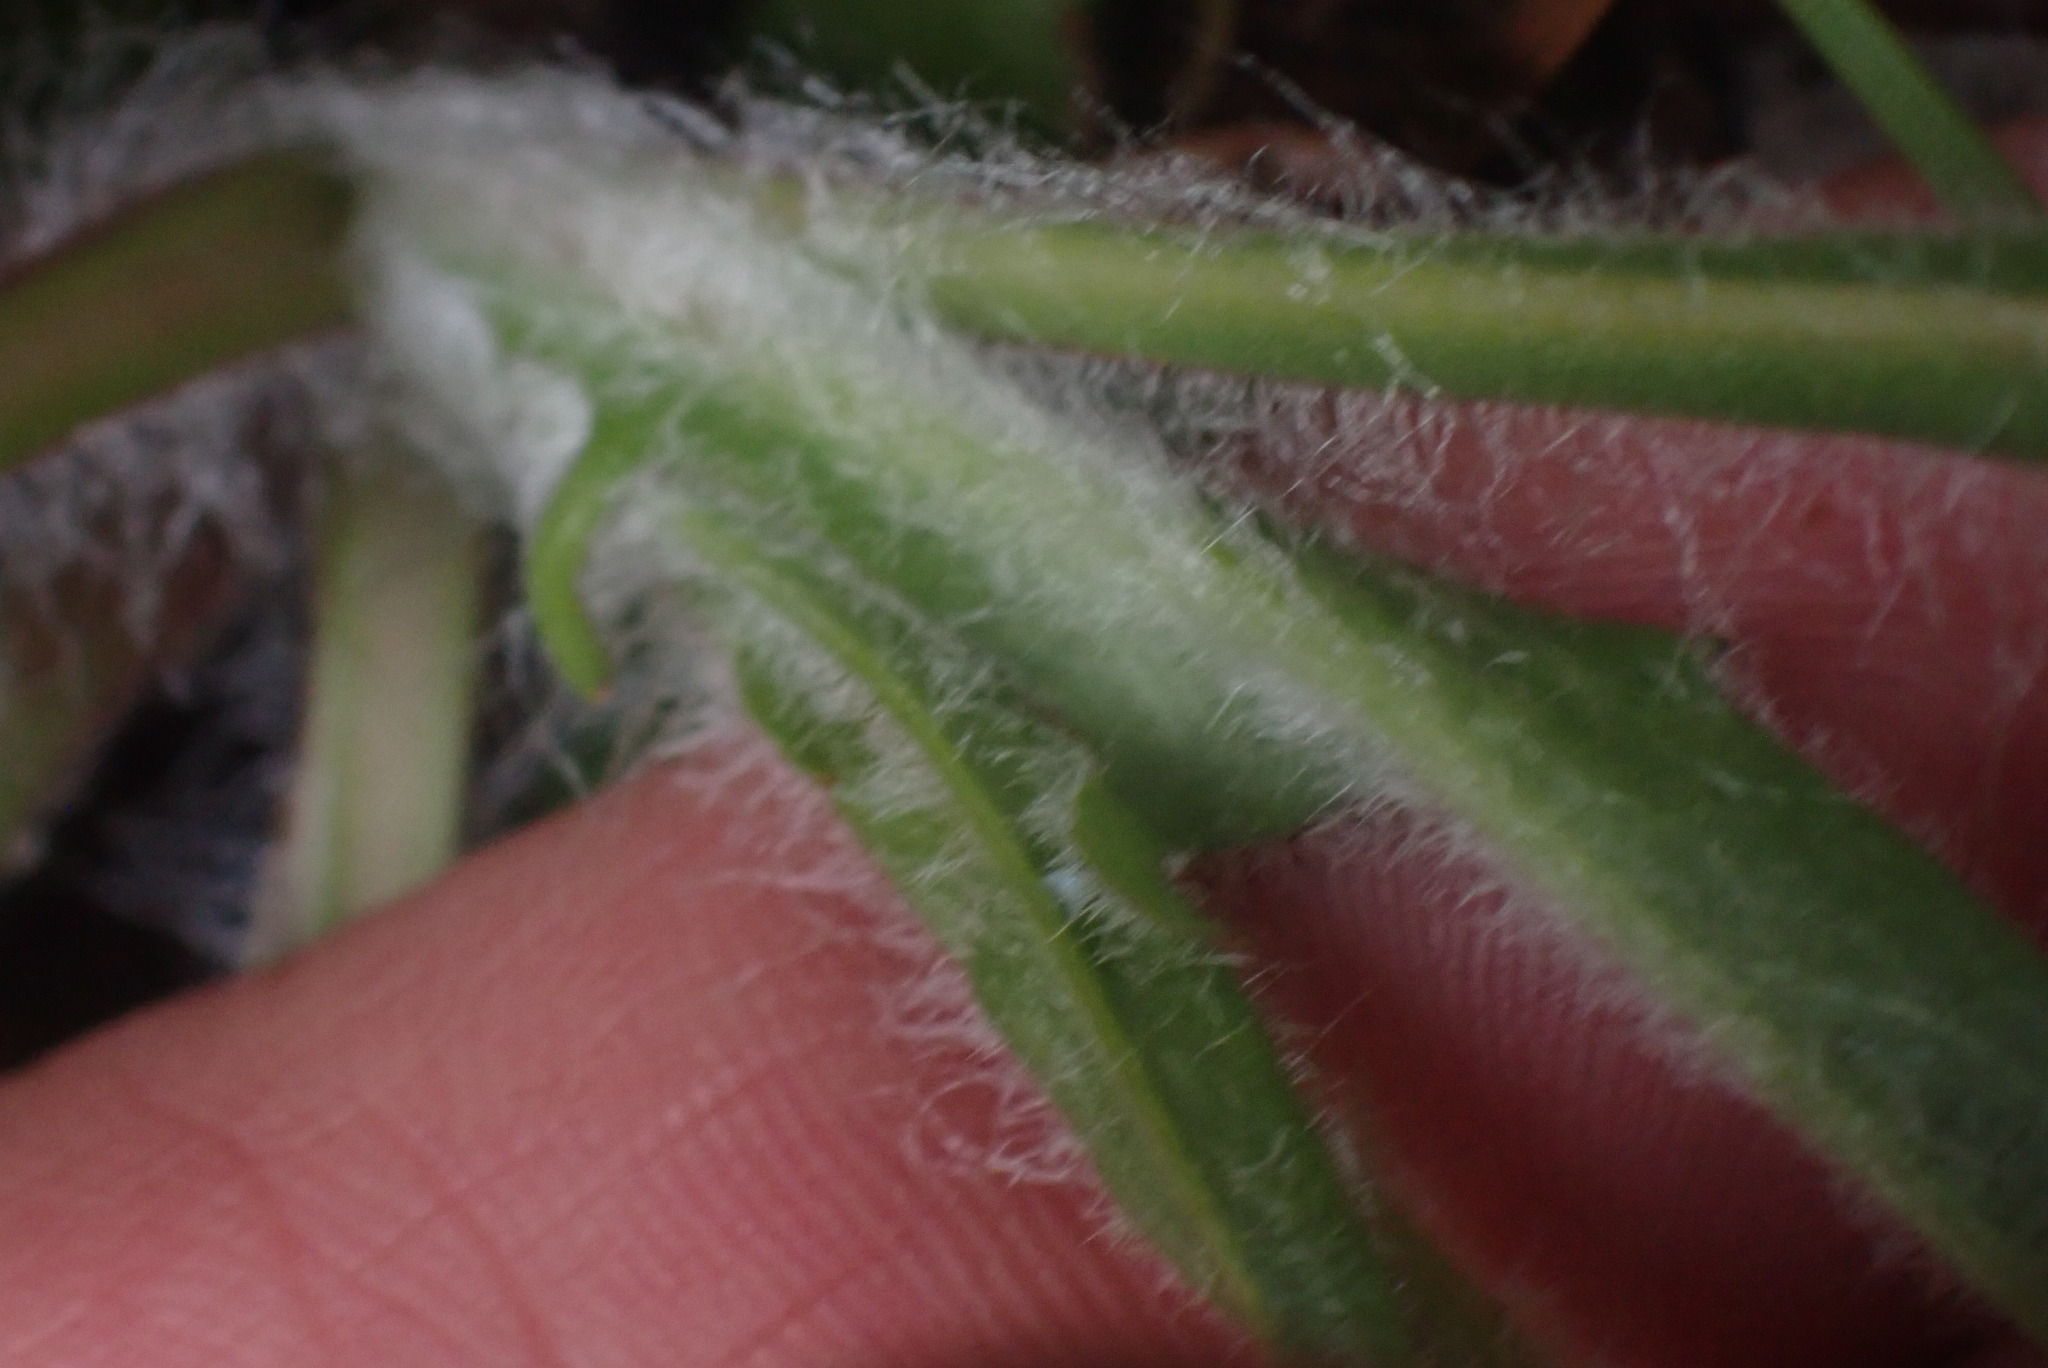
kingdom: Plantae
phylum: Tracheophyta
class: Magnoliopsida
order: Asterales
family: Asteraceae
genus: Agoseris
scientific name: Agoseris grandiflora
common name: Grassland agoseris
